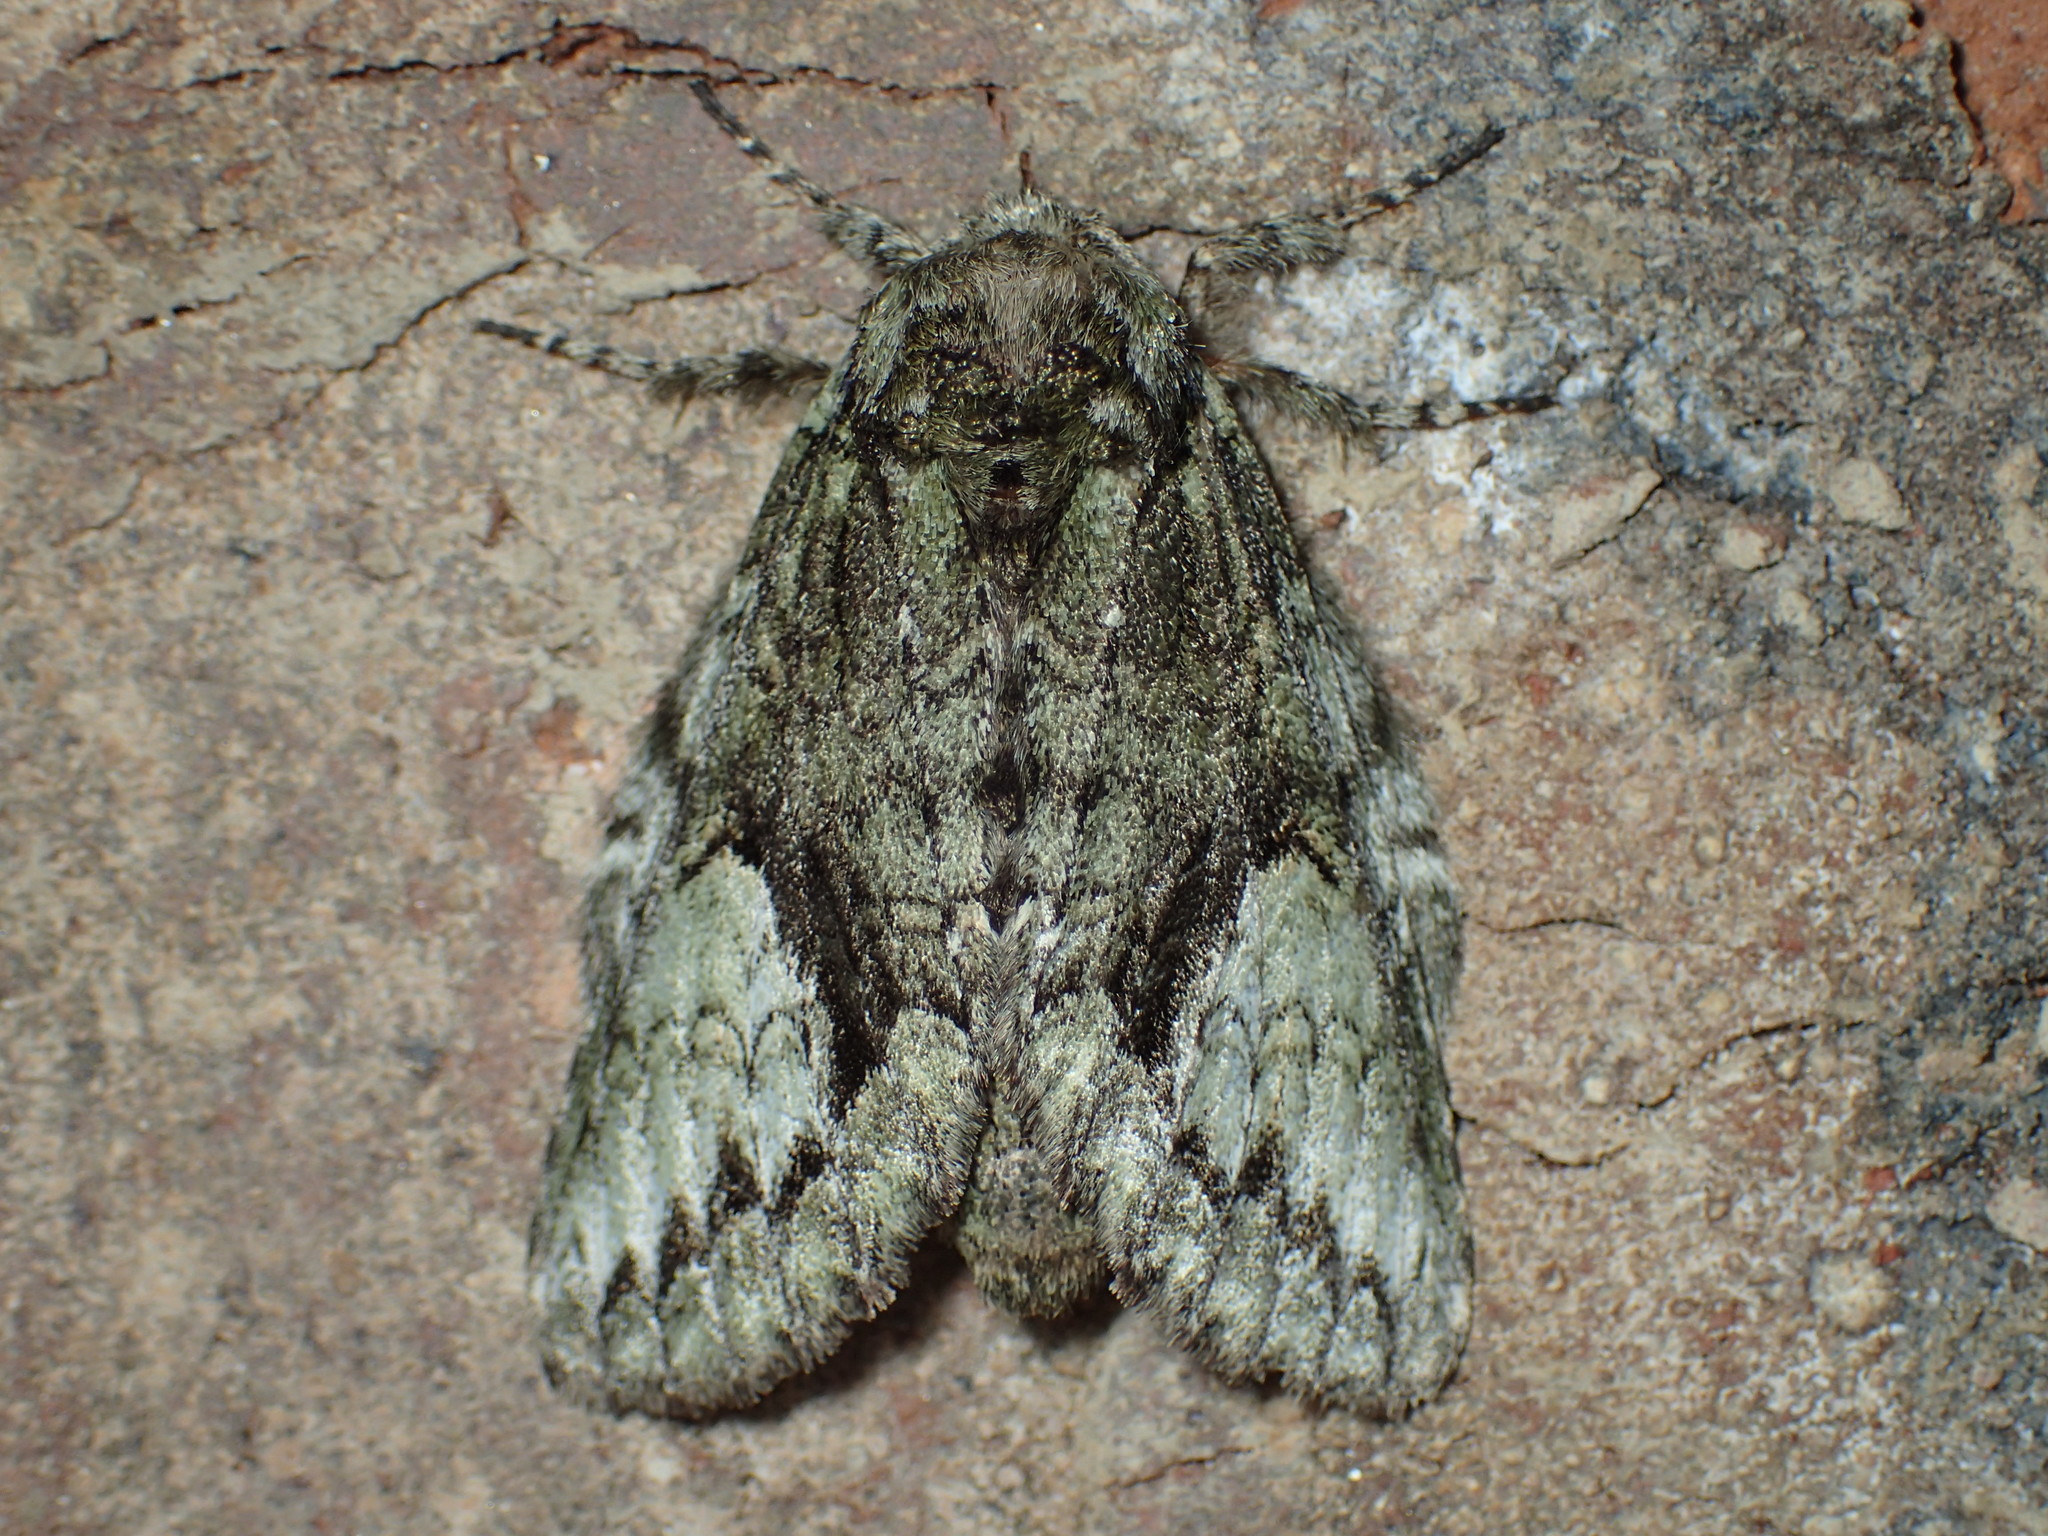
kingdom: Animalia
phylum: Arthropoda
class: Insecta
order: Lepidoptera
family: Notodontidae
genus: Heterocampa
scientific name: Heterocampa
